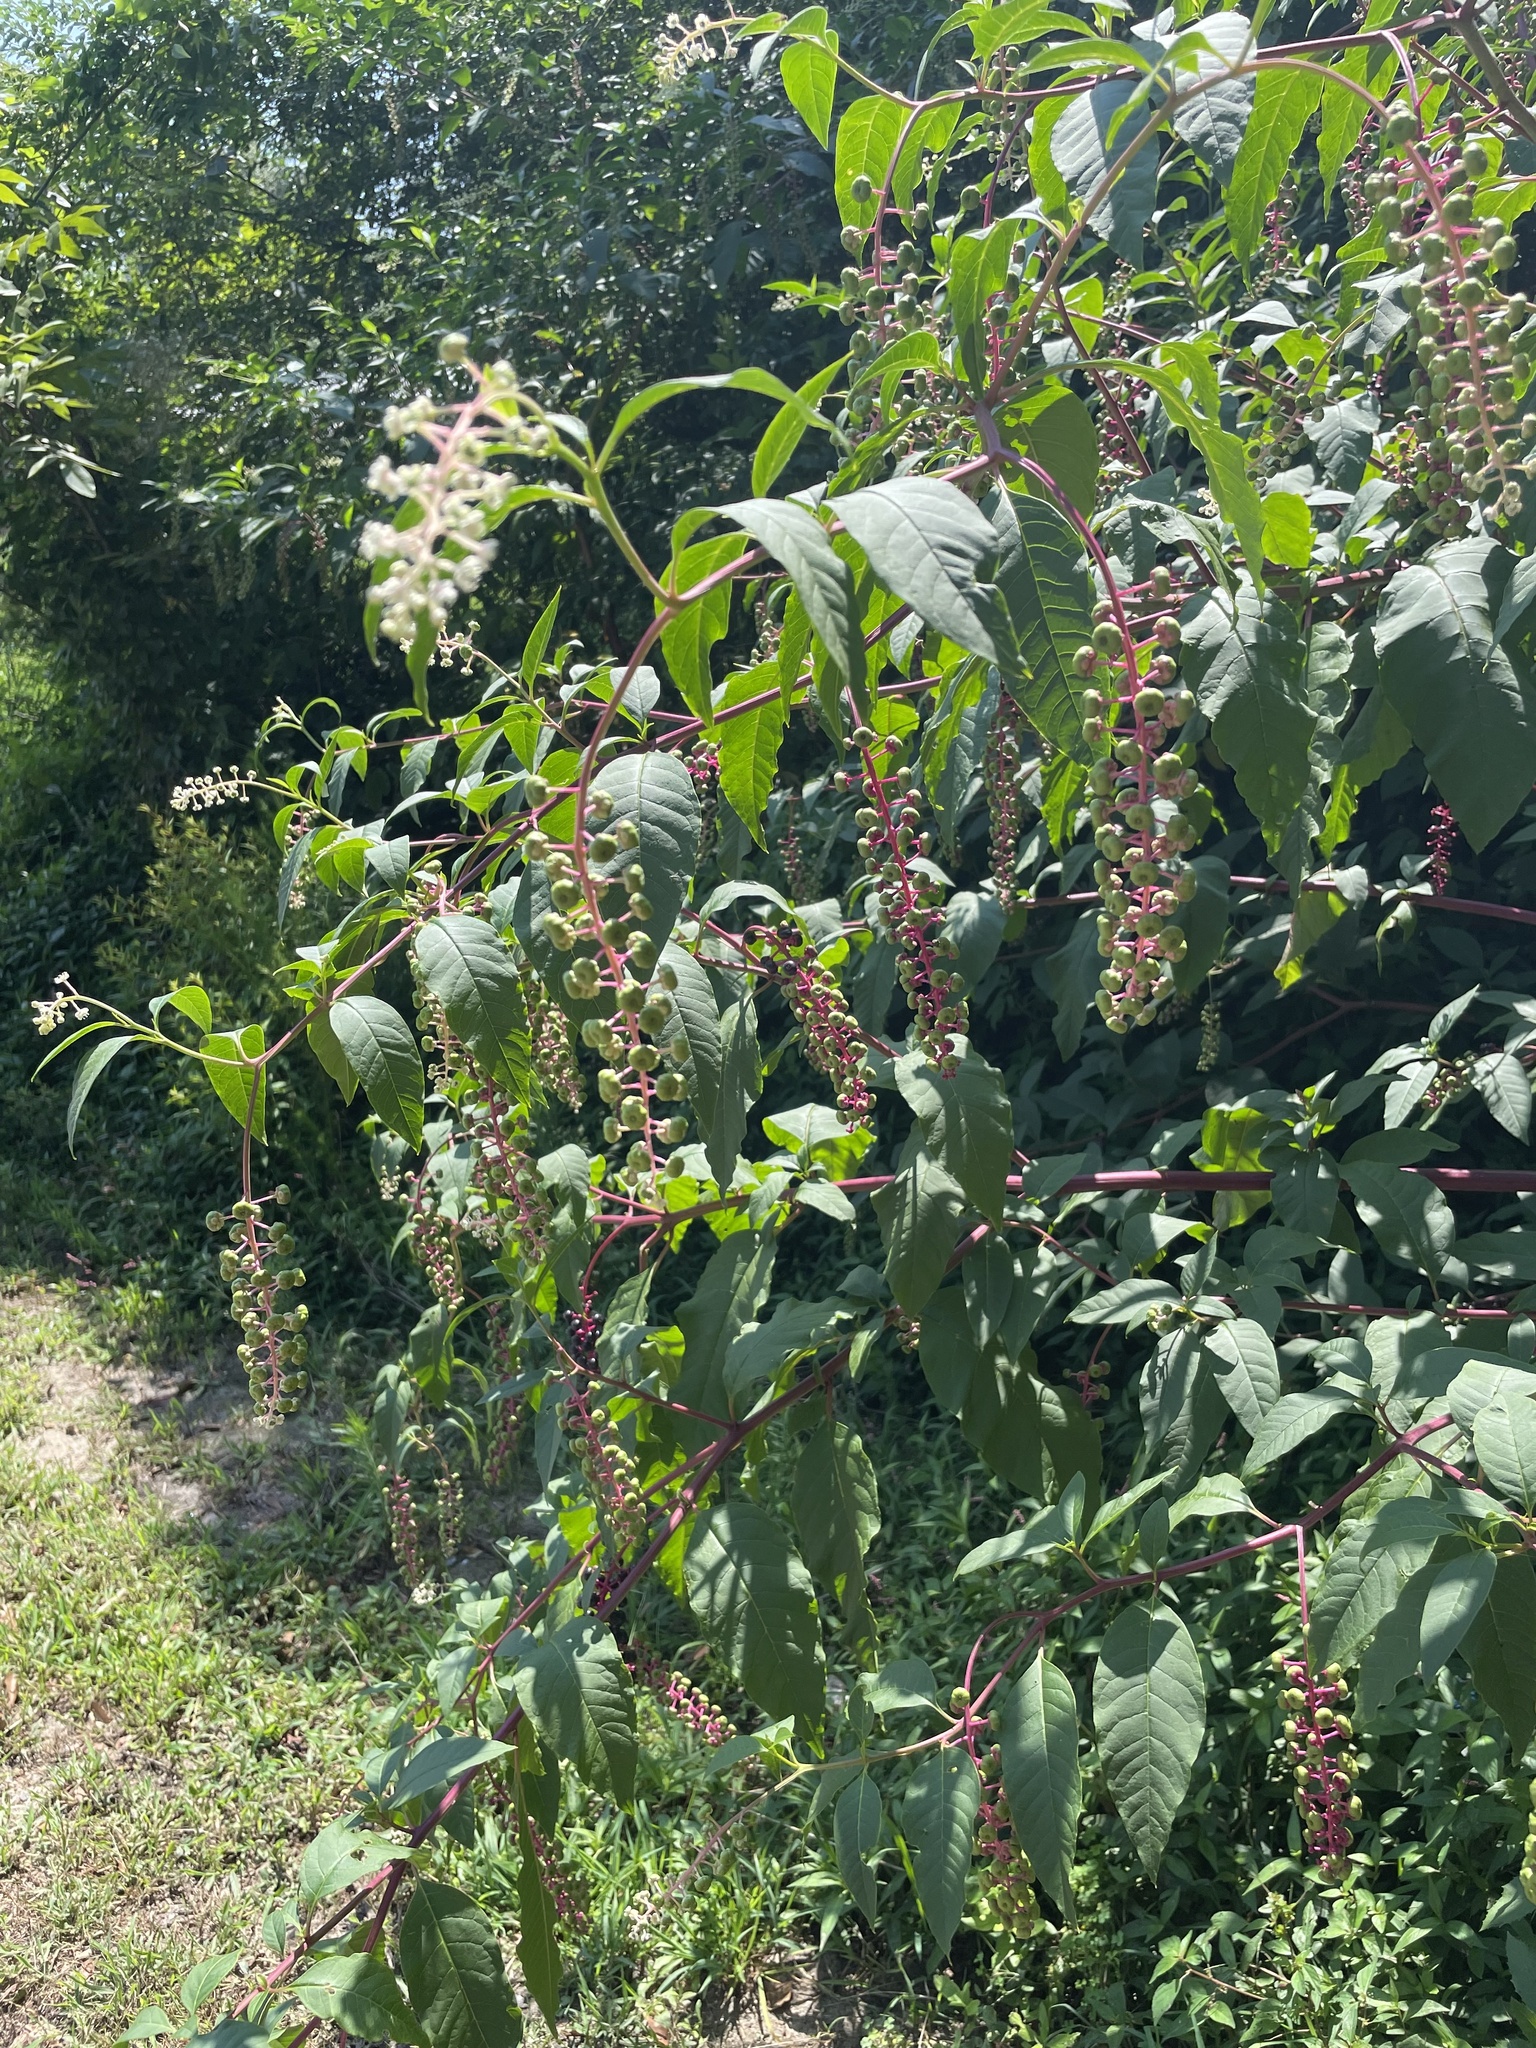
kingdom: Plantae
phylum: Tracheophyta
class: Magnoliopsida
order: Caryophyllales
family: Phytolaccaceae
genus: Phytolacca
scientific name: Phytolacca americana
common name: American pokeweed
